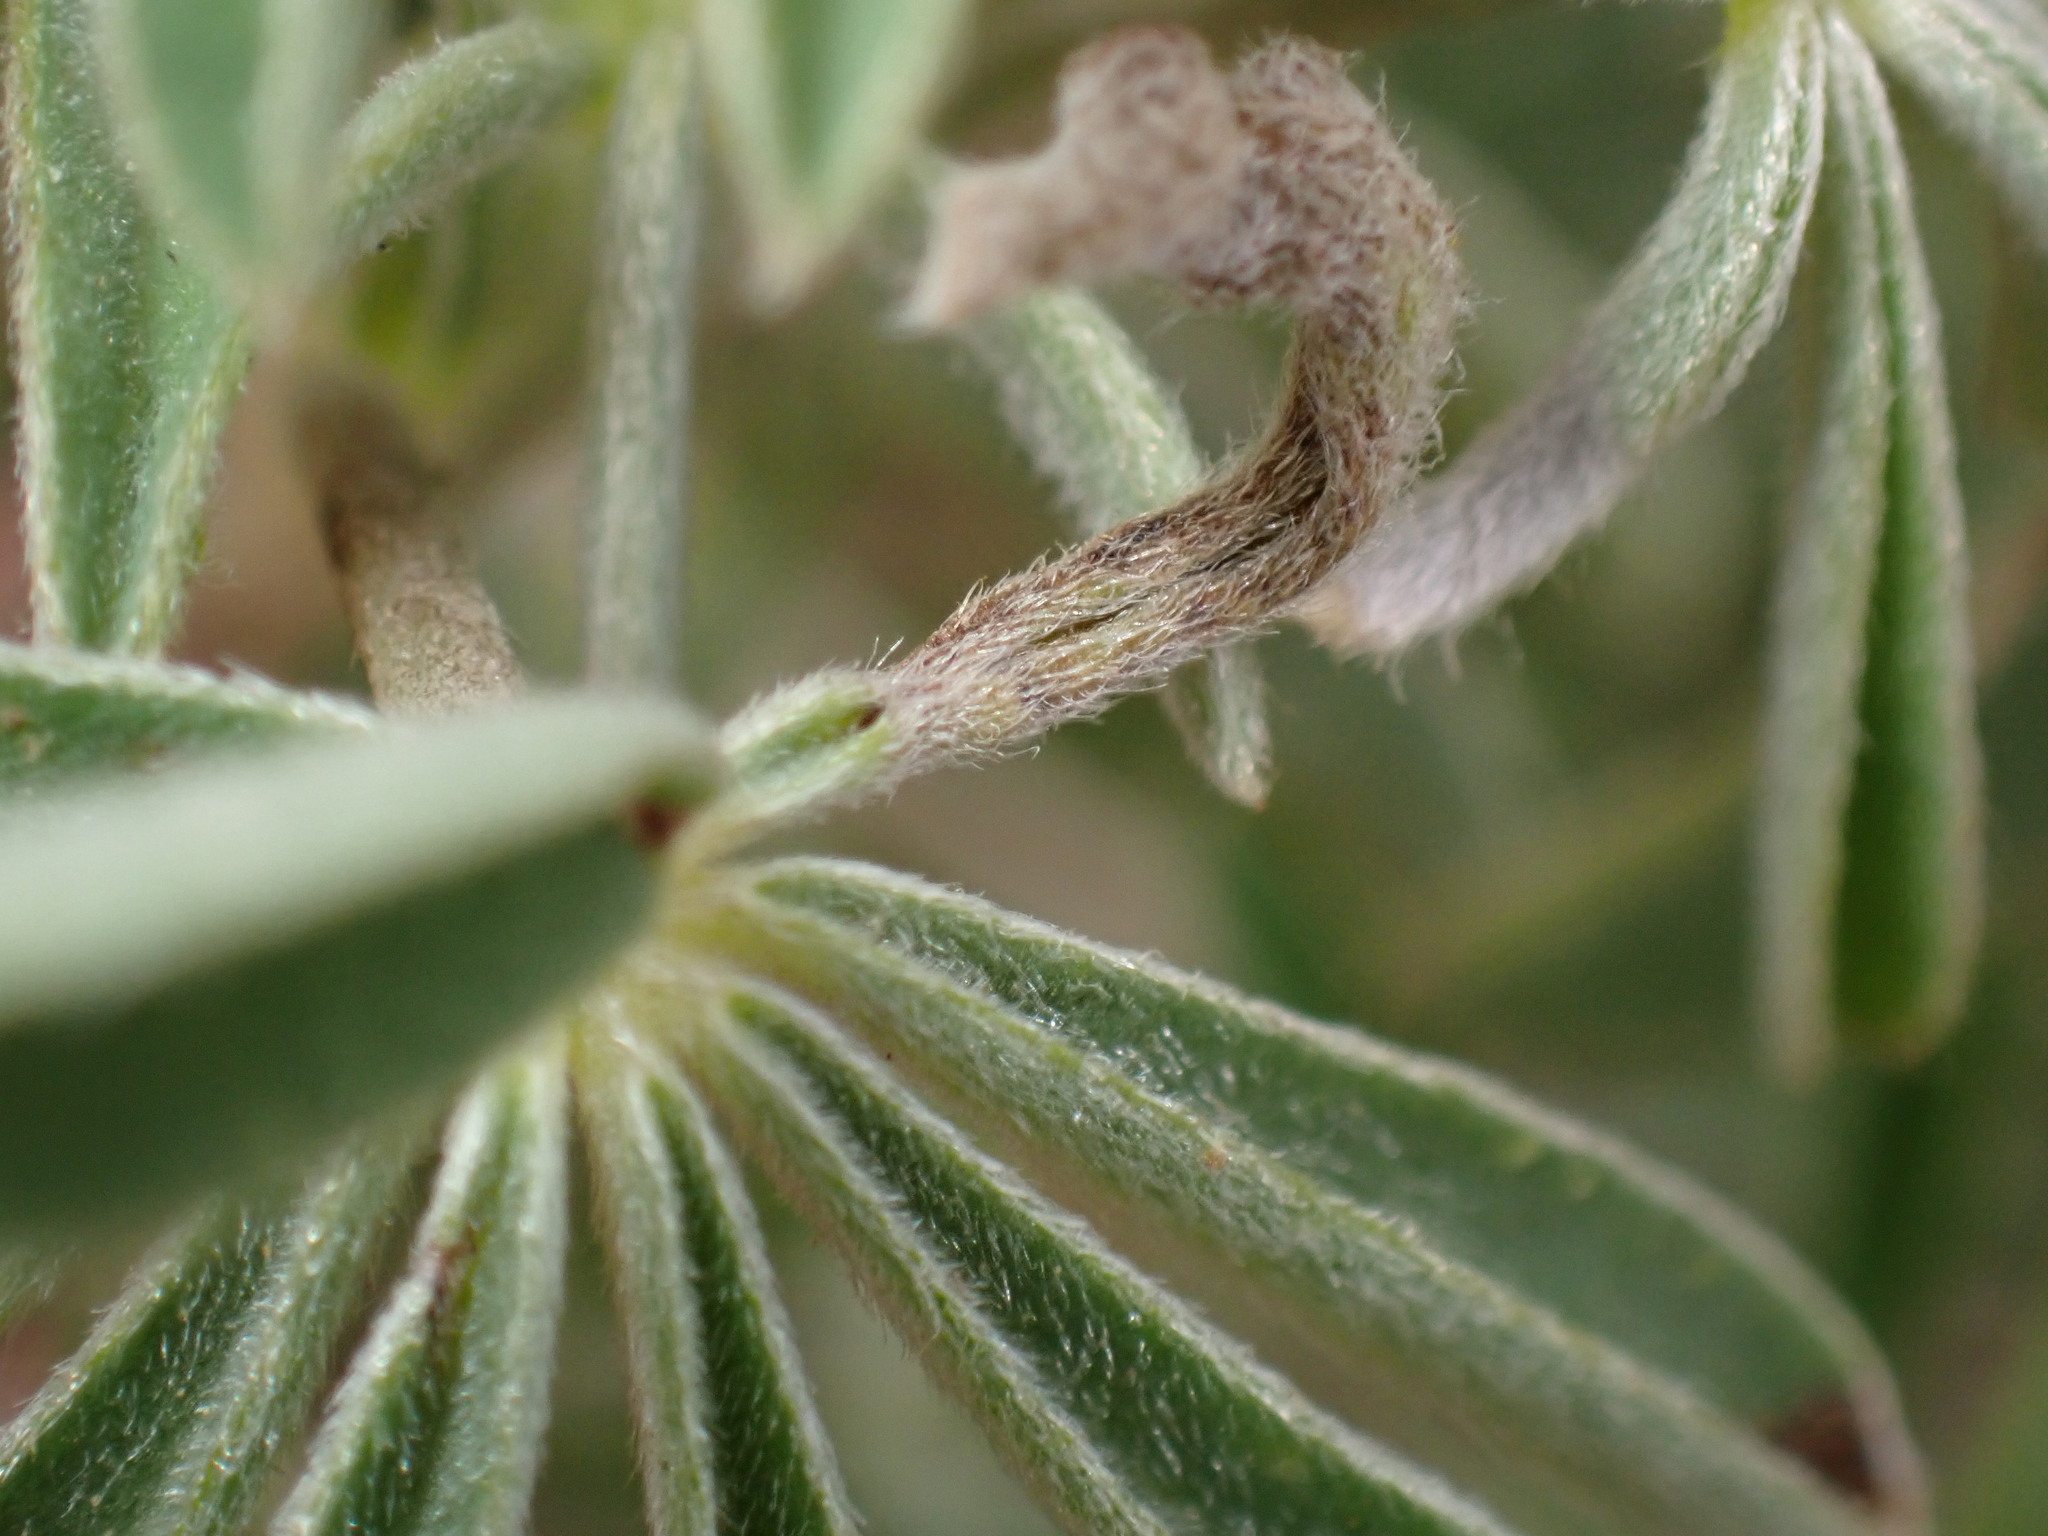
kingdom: Animalia
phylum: Arthropoda
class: Insecta
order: Diptera
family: Cecidomyiidae
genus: Dasineura
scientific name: Dasineura lupinorum
